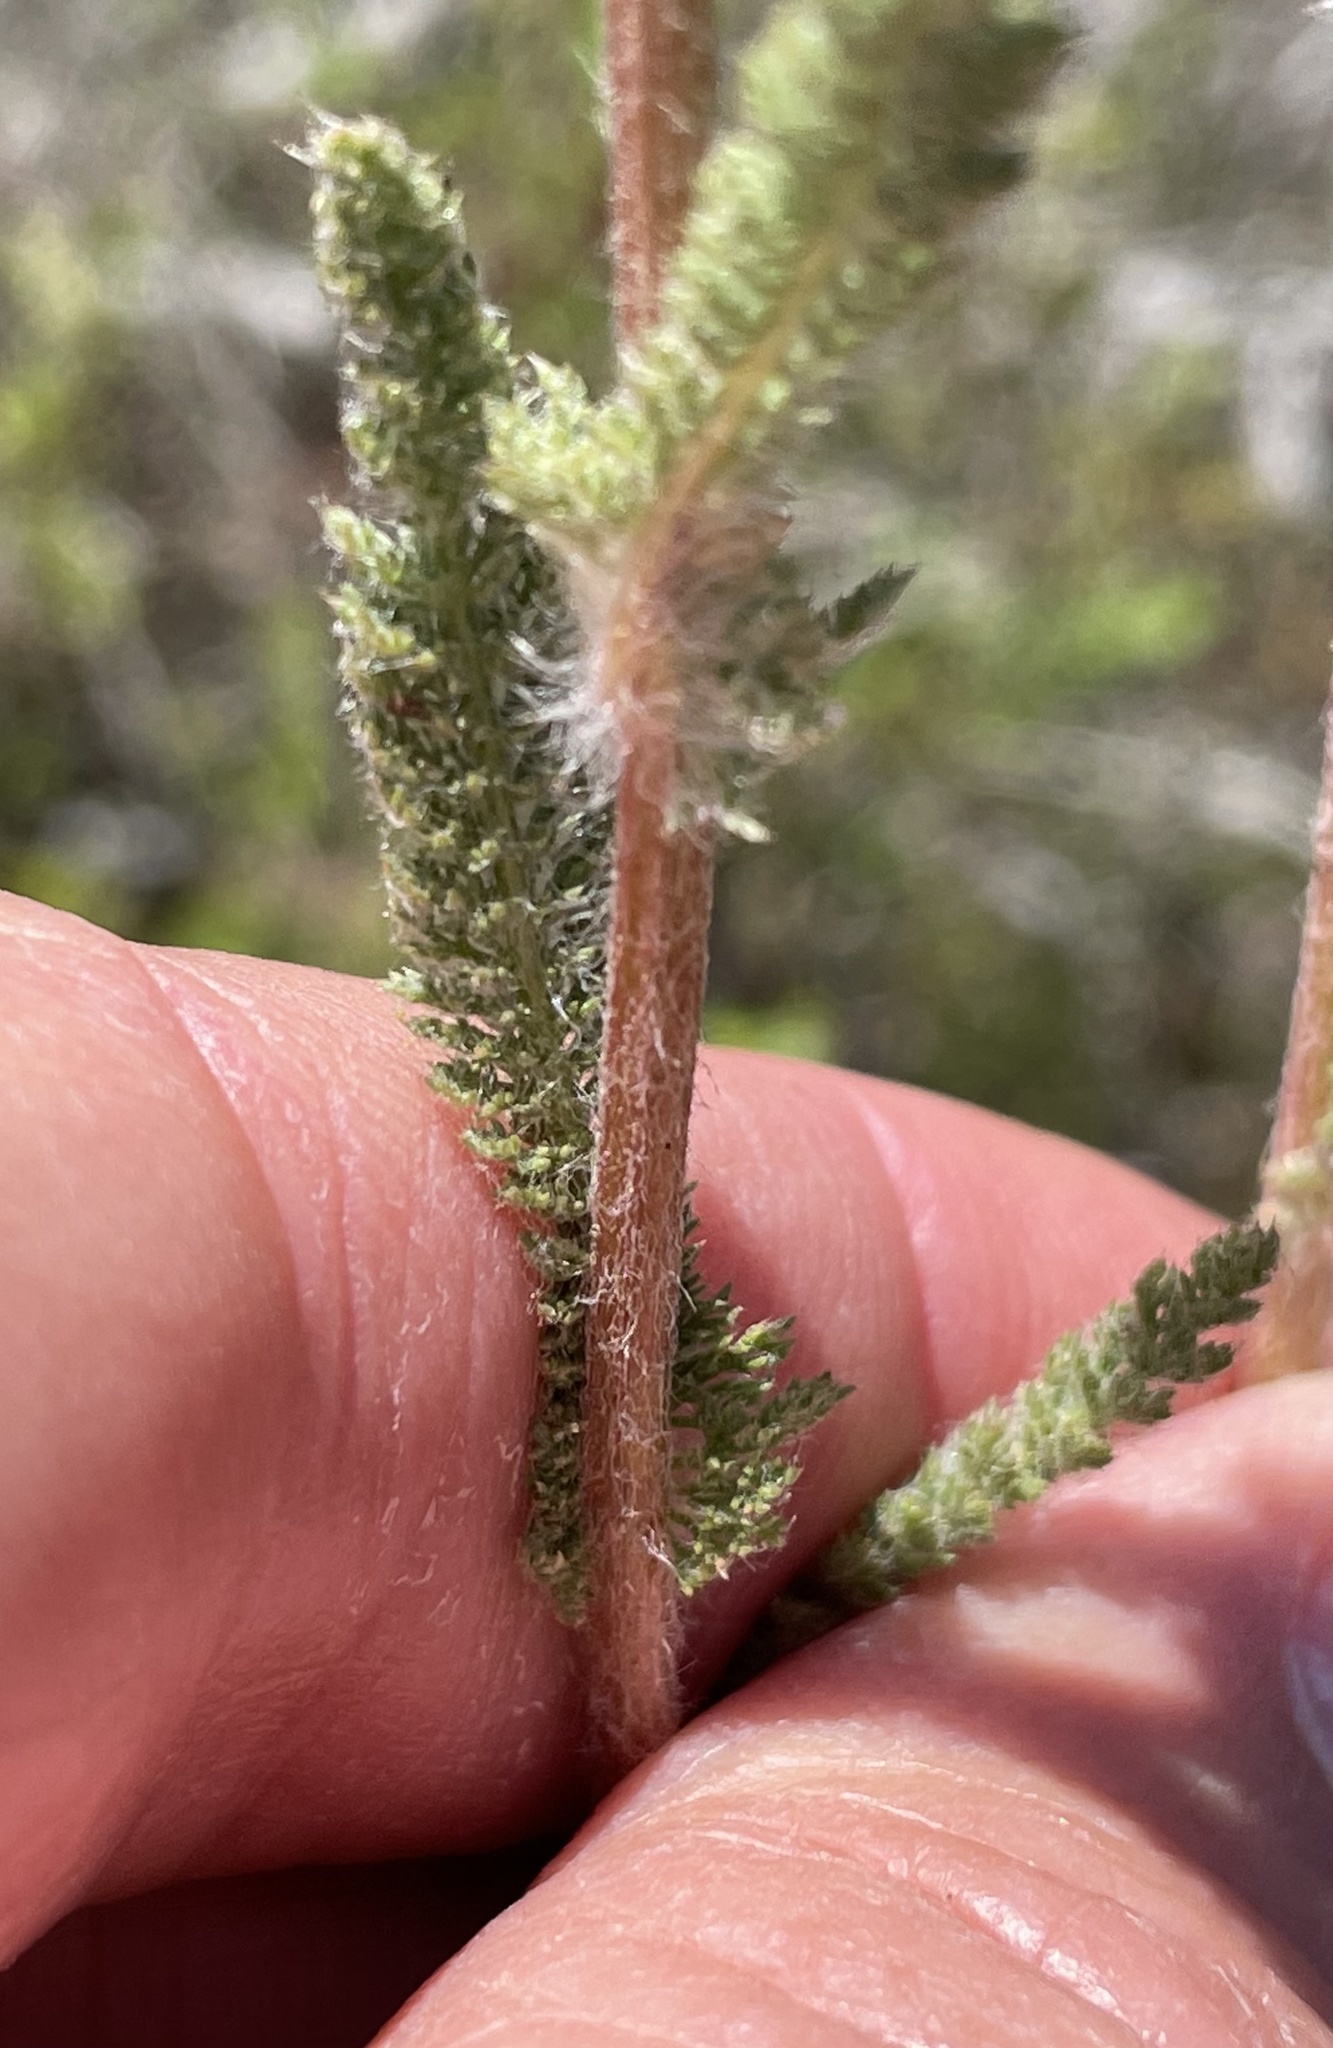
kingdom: Plantae
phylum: Tracheophyta
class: Magnoliopsida
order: Asterales
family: Asteraceae
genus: Achillea
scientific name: Achillea millefolium
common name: Yarrow
